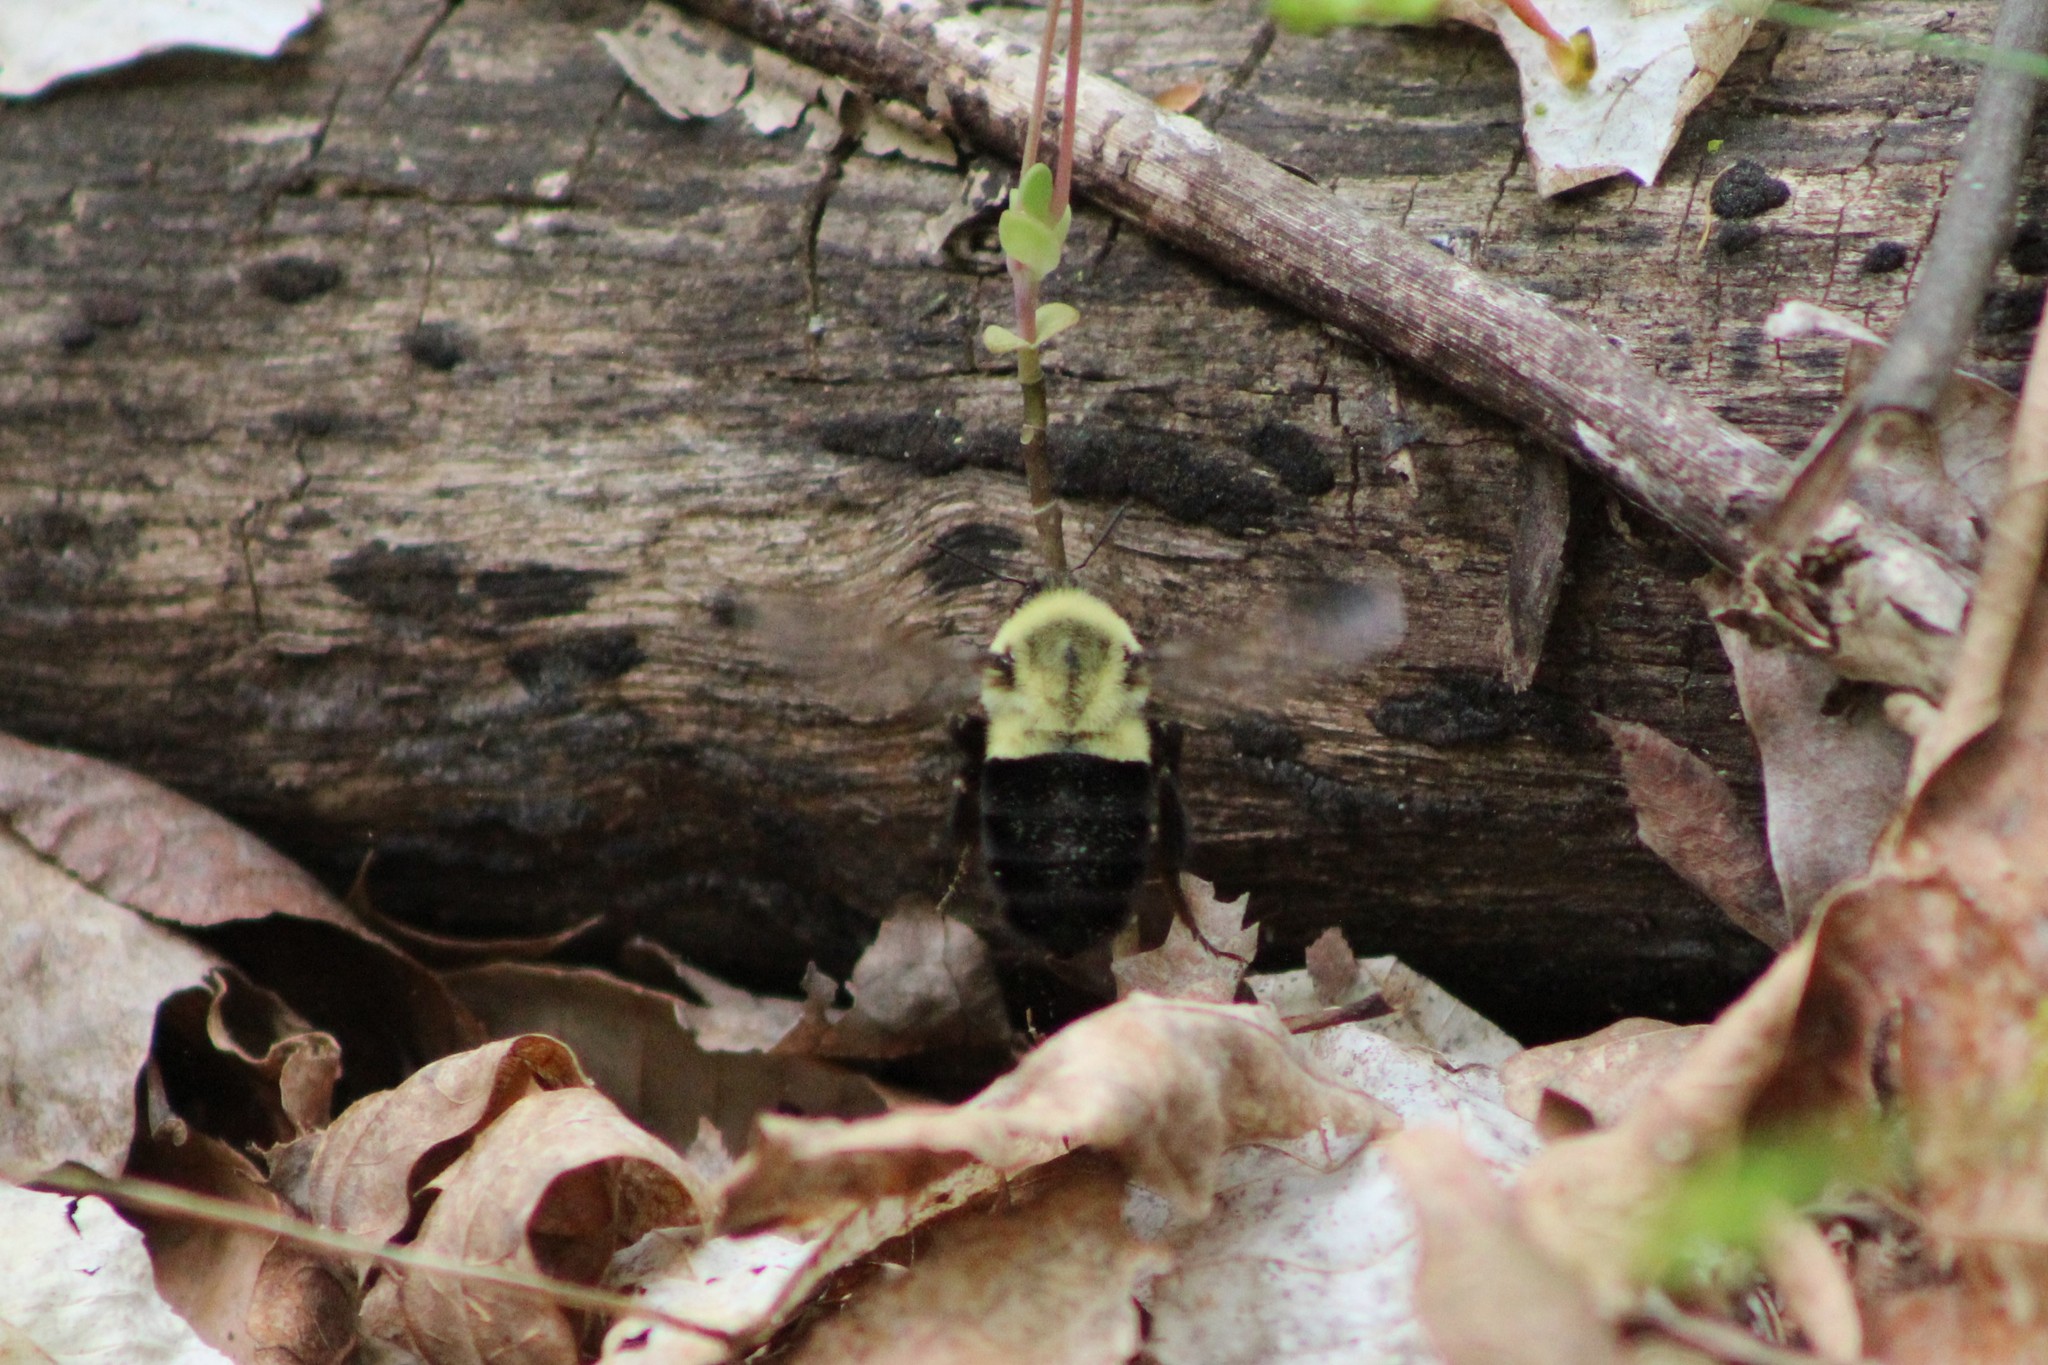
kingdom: Animalia
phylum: Arthropoda
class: Insecta
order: Hymenoptera
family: Apidae
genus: Bombus
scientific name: Bombus impatiens
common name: Common eastern bumble bee
